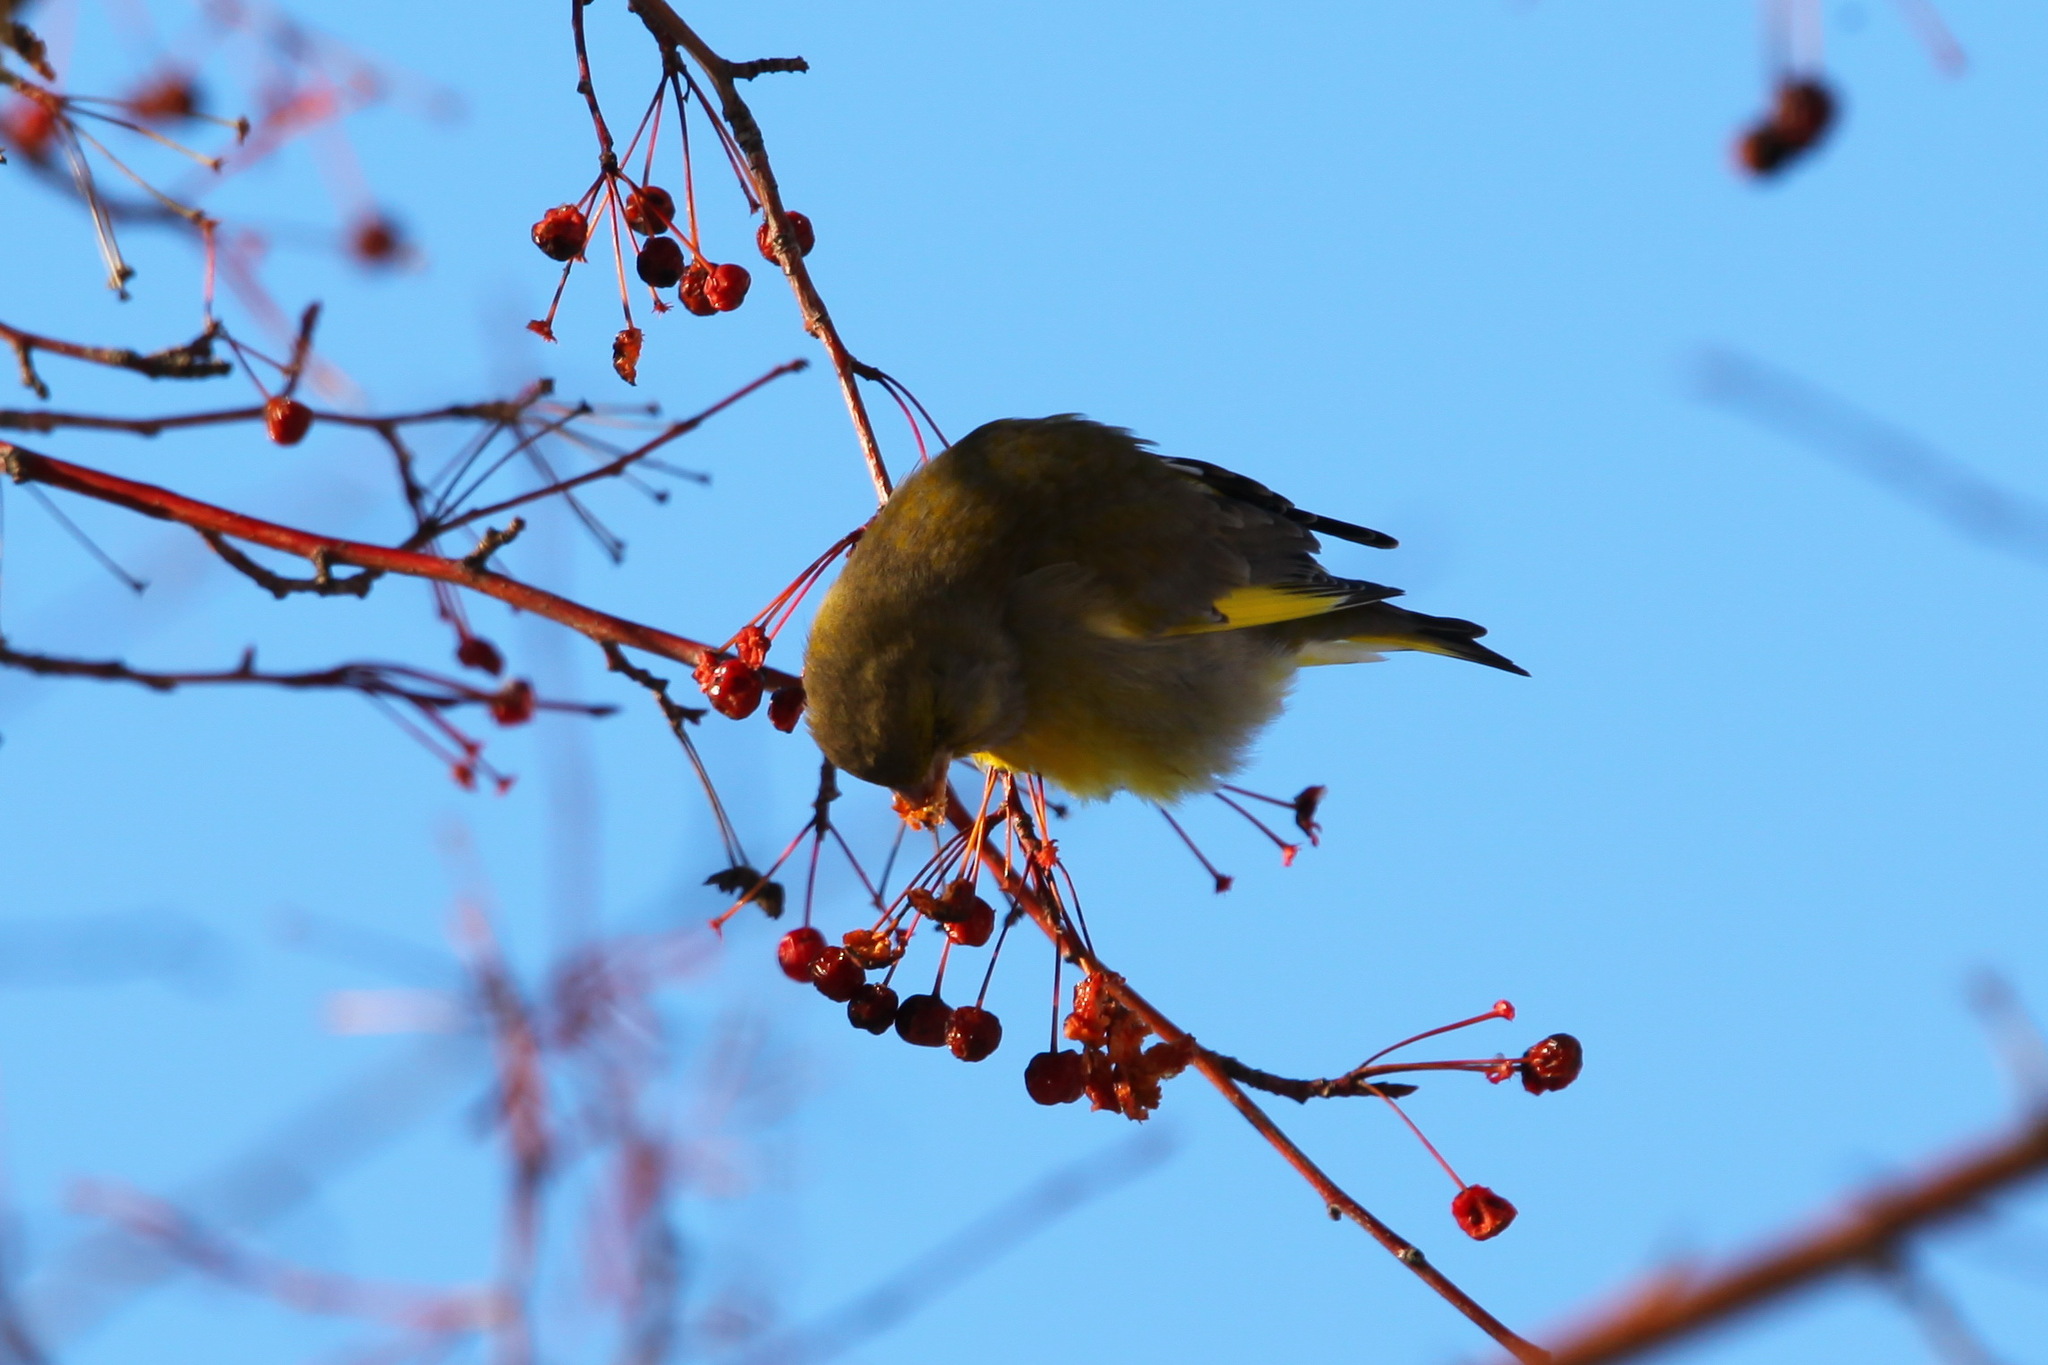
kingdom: Plantae
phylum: Tracheophyta
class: Liliopsida
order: Poales
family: Poaceae
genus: Chloris
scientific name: Chloris chloris
